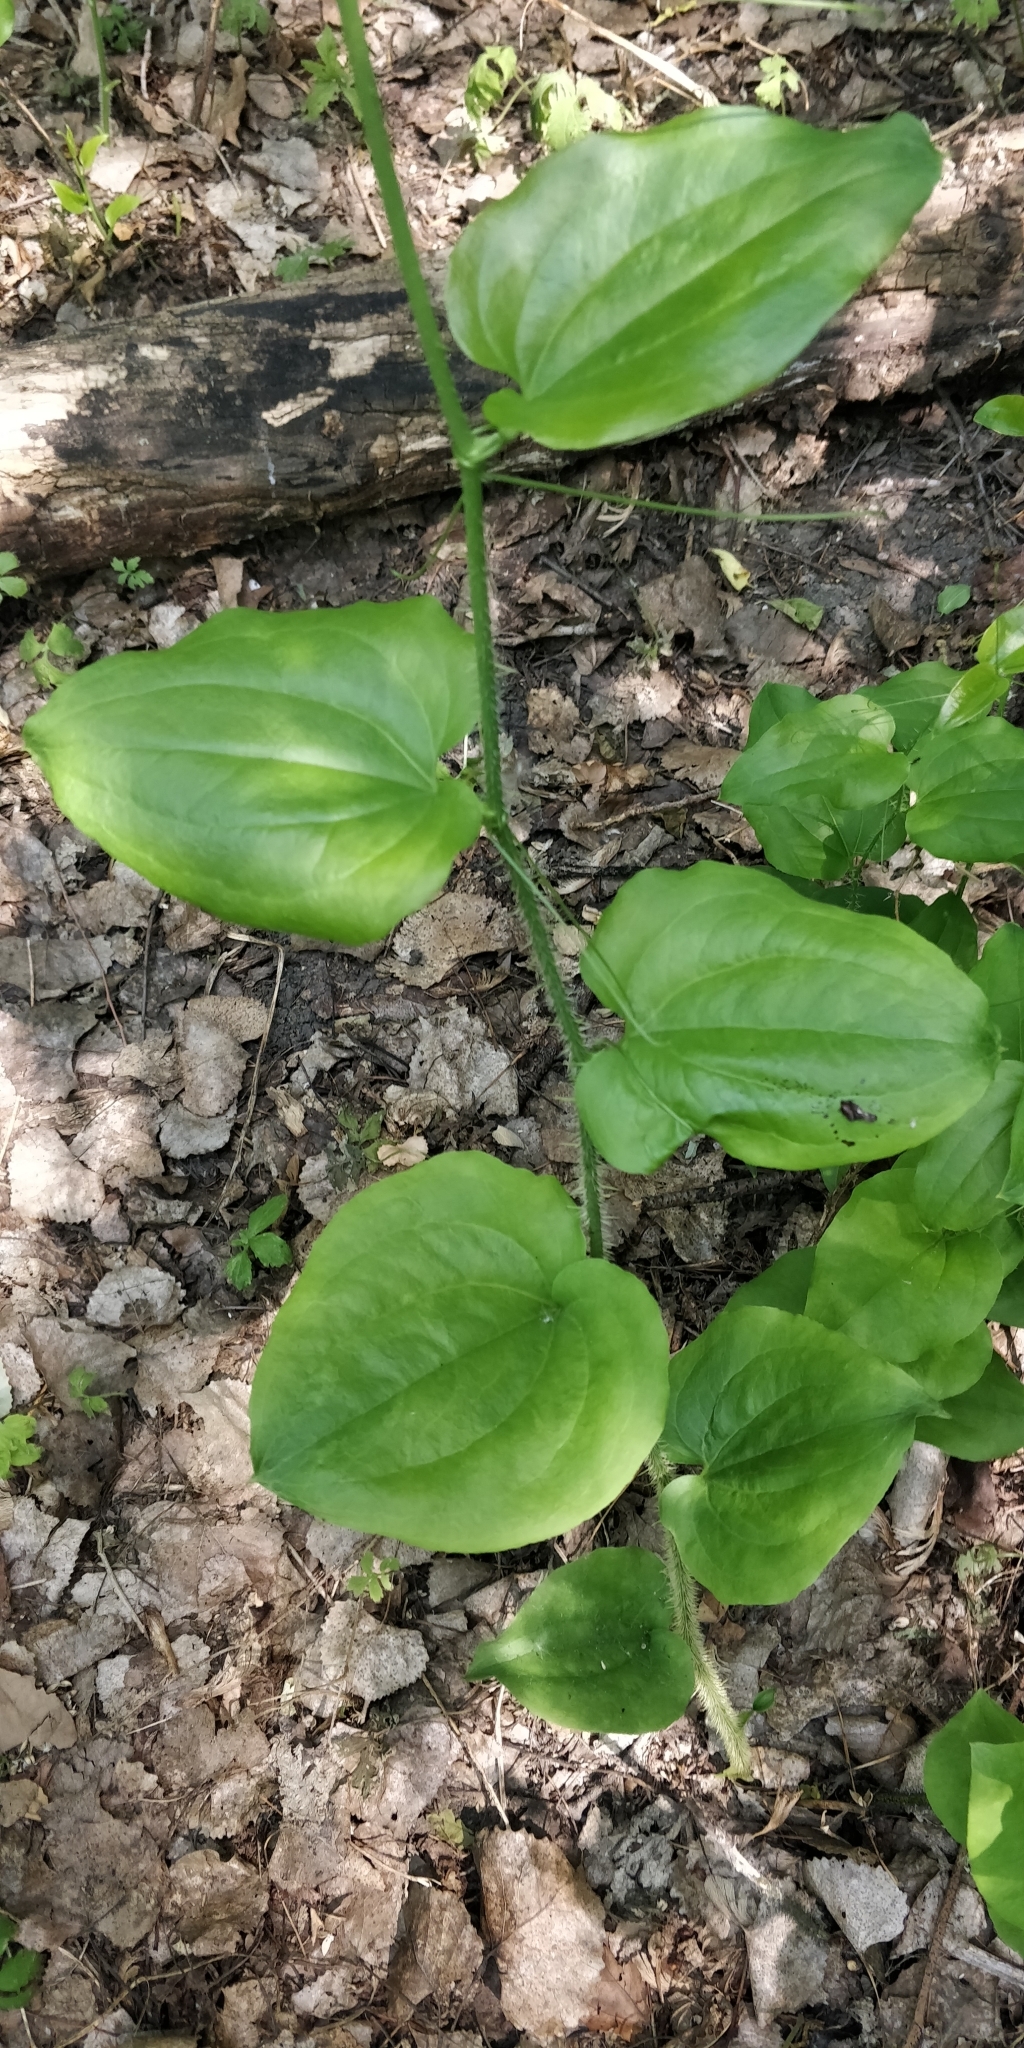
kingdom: Plantae
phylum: Tracheophyta
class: Liliopsida
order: Liliales
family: Smilacaceae
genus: Smilax
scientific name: Smilax tamnoides
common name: Hellfetter
